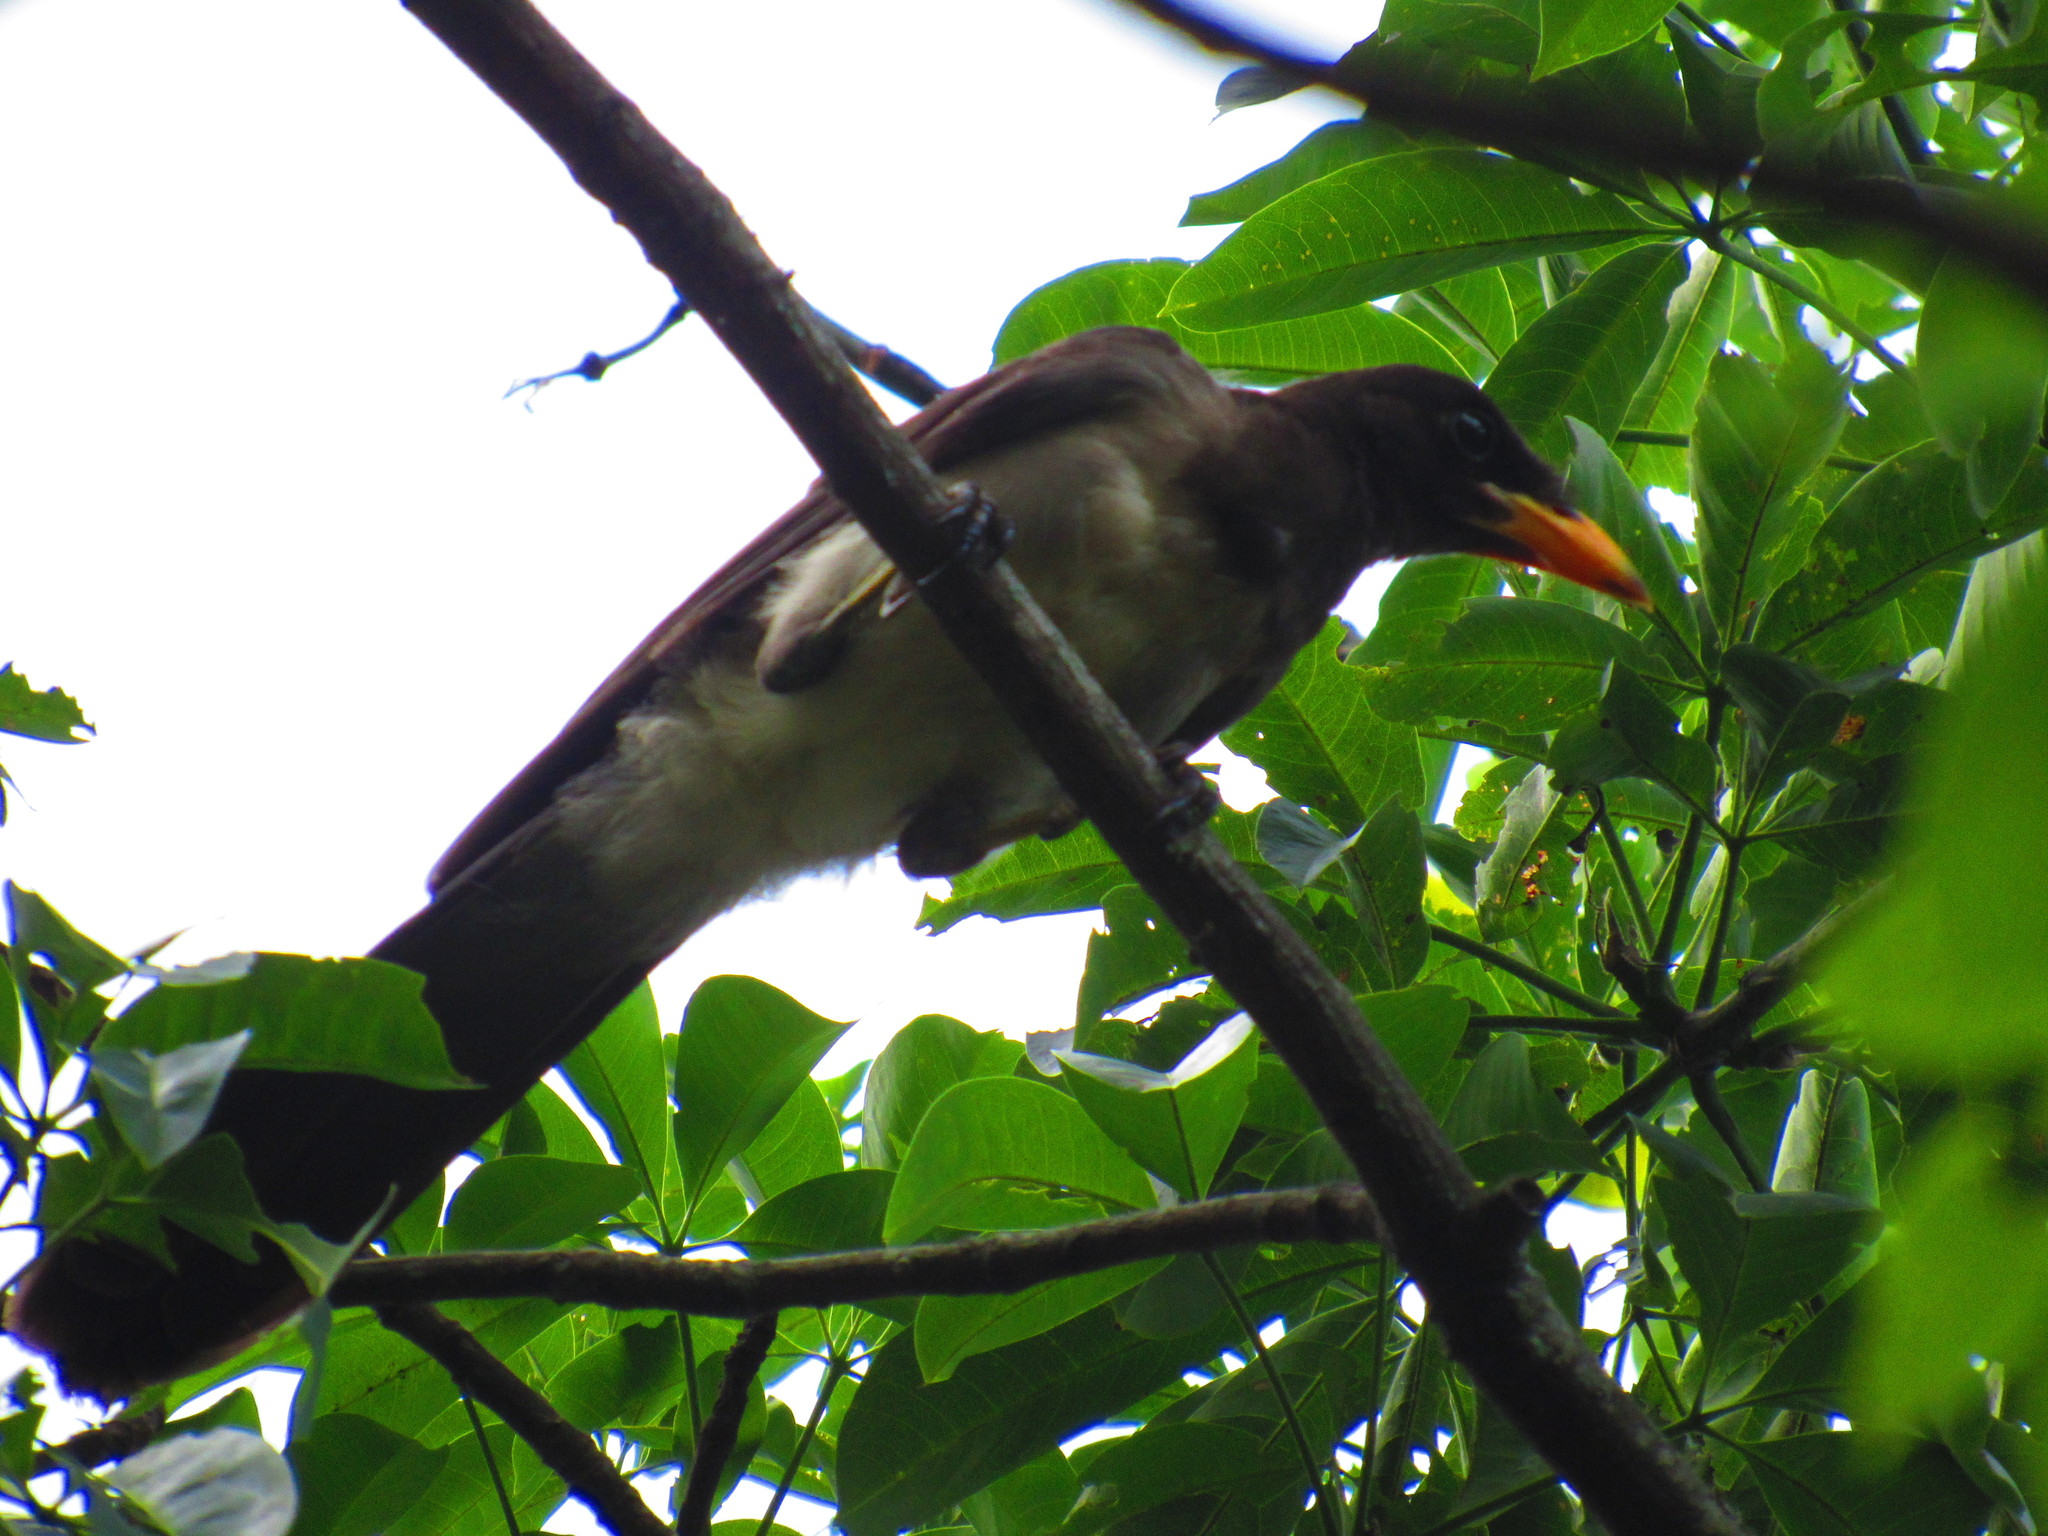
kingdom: Animalia
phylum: Chordata
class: Aves
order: Passeriformes
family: Corvidae
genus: Psilorhinus
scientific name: Psilorhinus morio
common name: Brown jay
